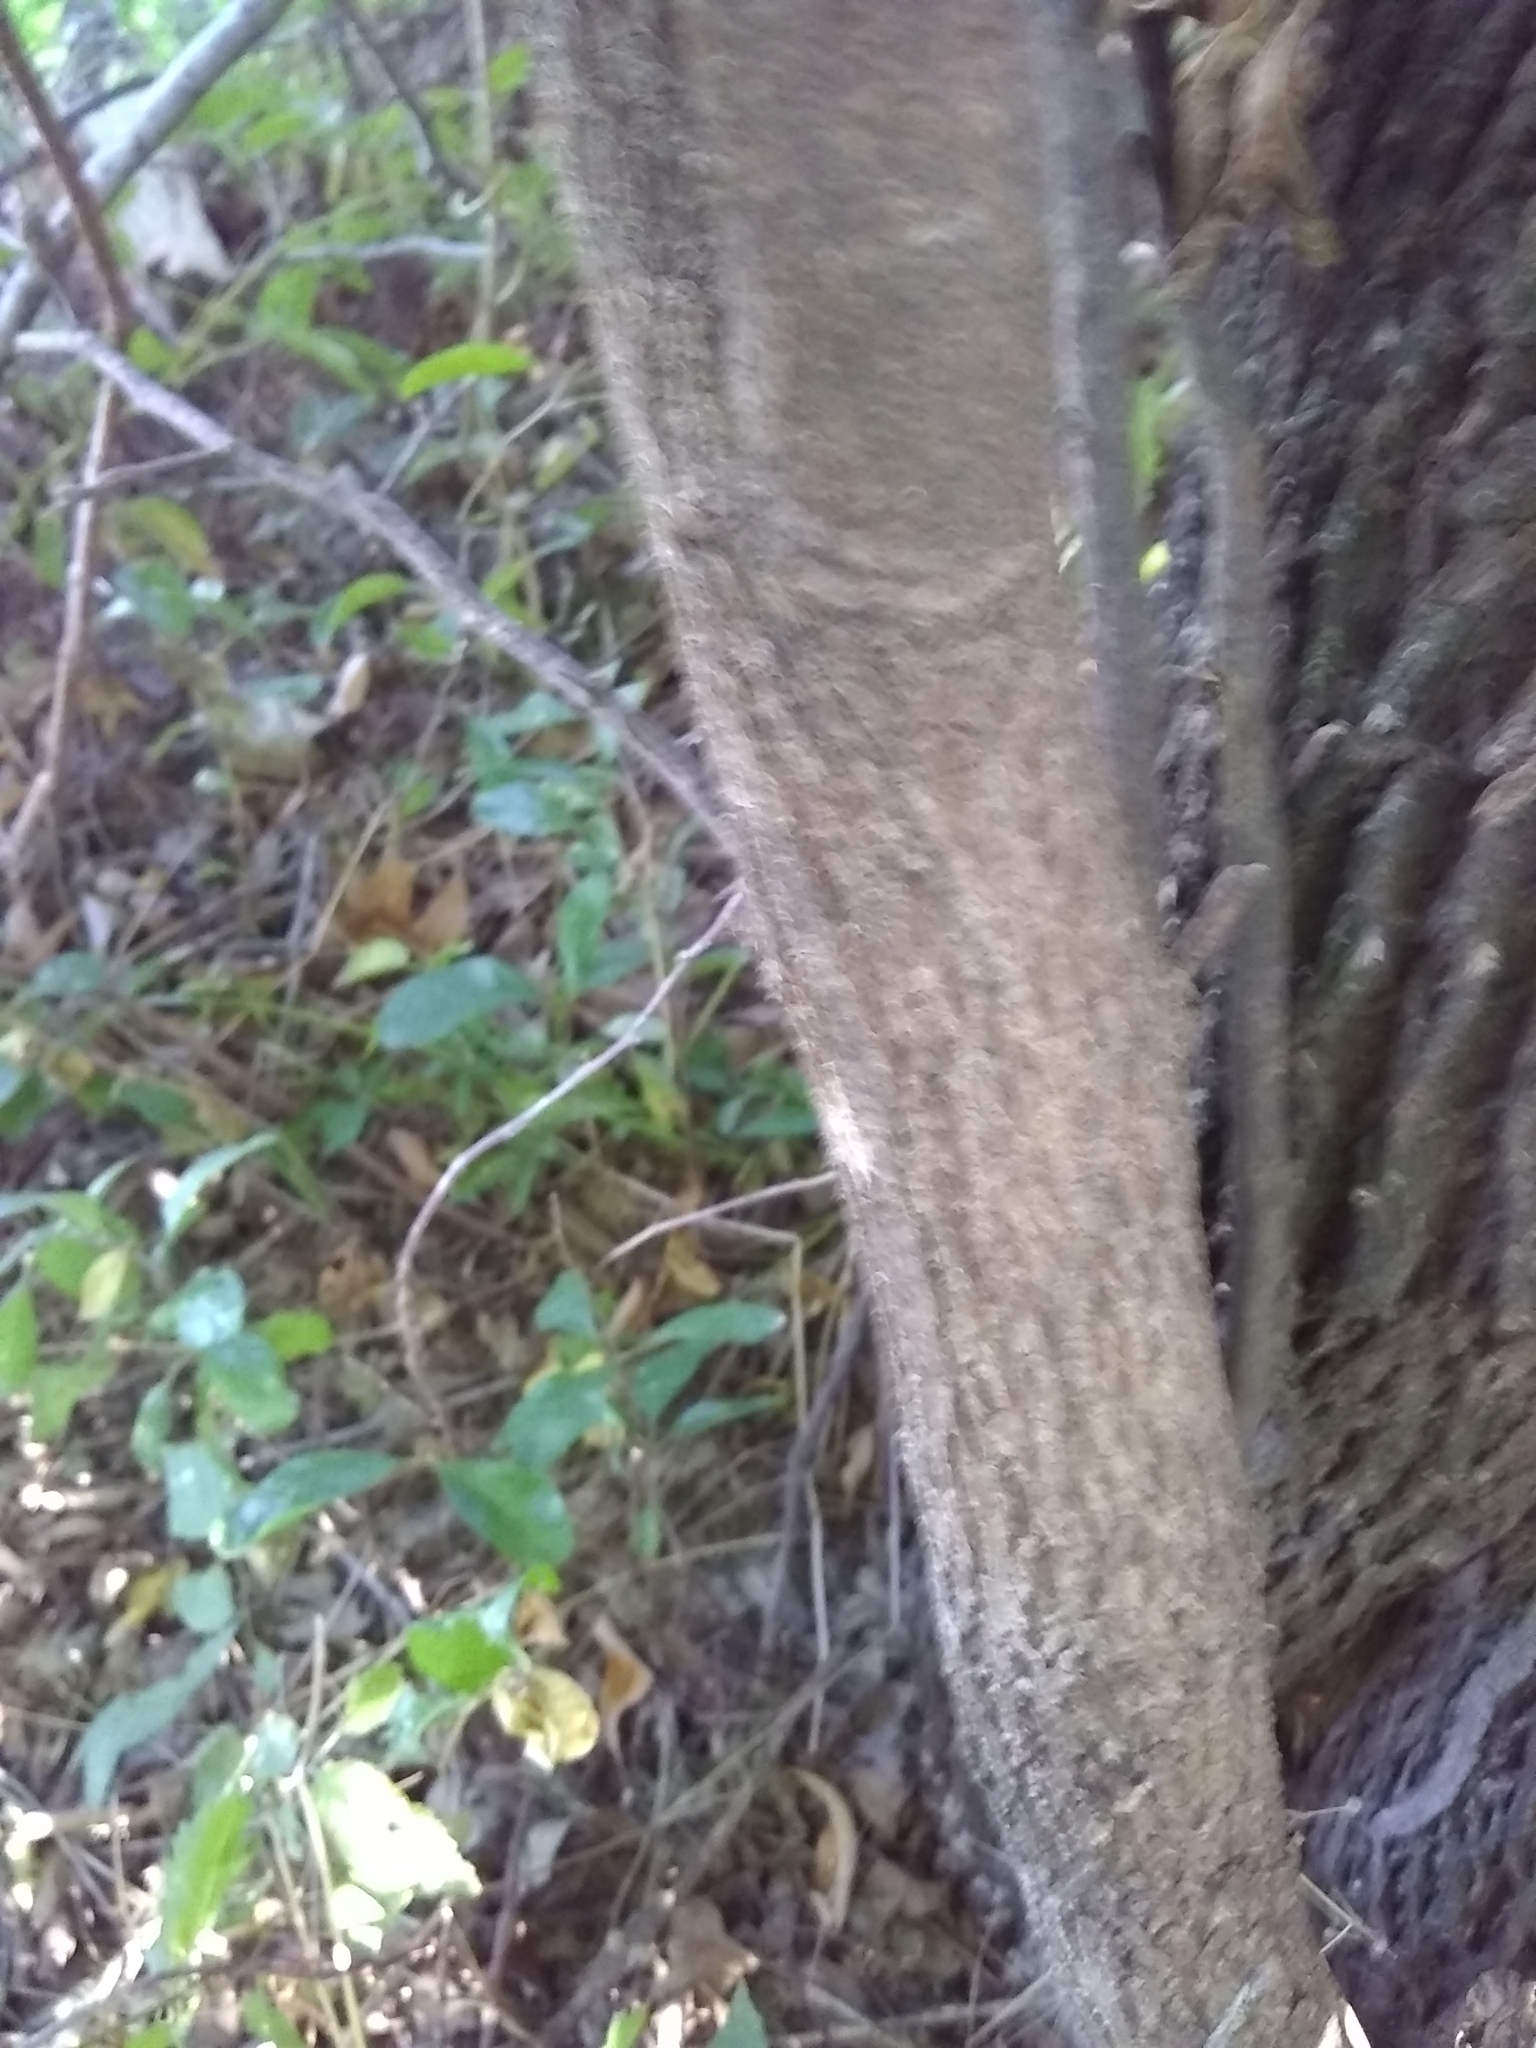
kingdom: Plantae
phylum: Tracheophyta
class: Magnoliopsida
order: Ericales
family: Sapotaceae
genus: Sideroxylon
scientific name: Sideroxylon lanuginosum
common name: Chittamwood
